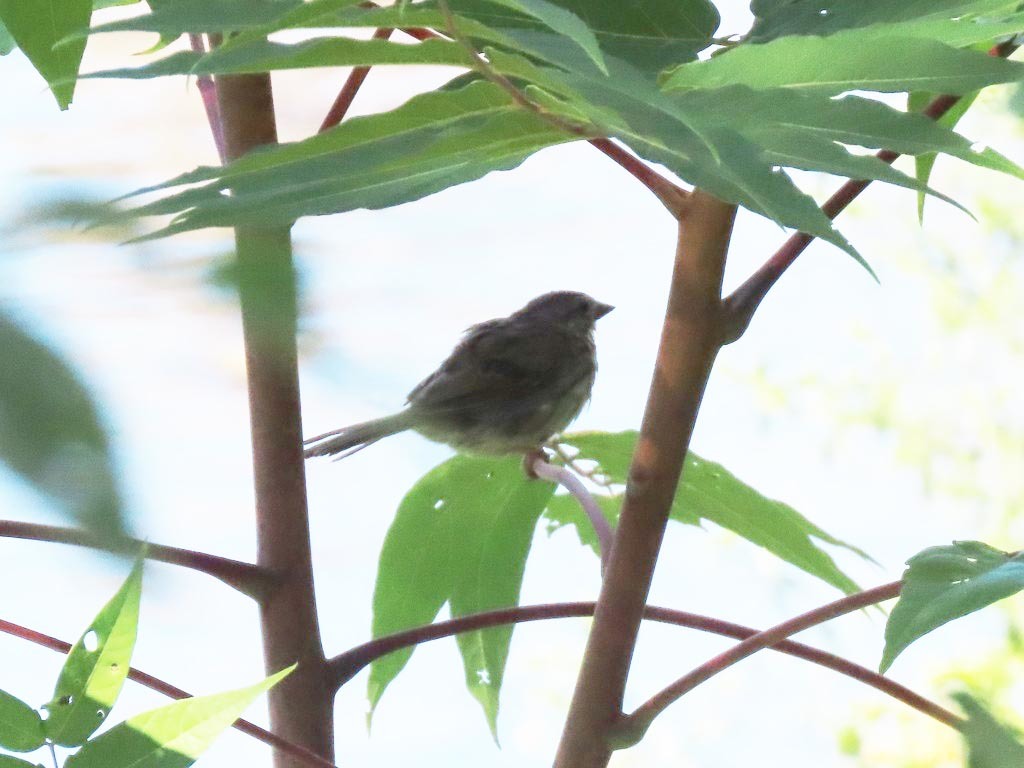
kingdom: Animalia
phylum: Chordata
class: Aves
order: Passeriformes
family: Passerellidae
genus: Melospiza
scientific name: Melospiza melodia
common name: Song sparrow
